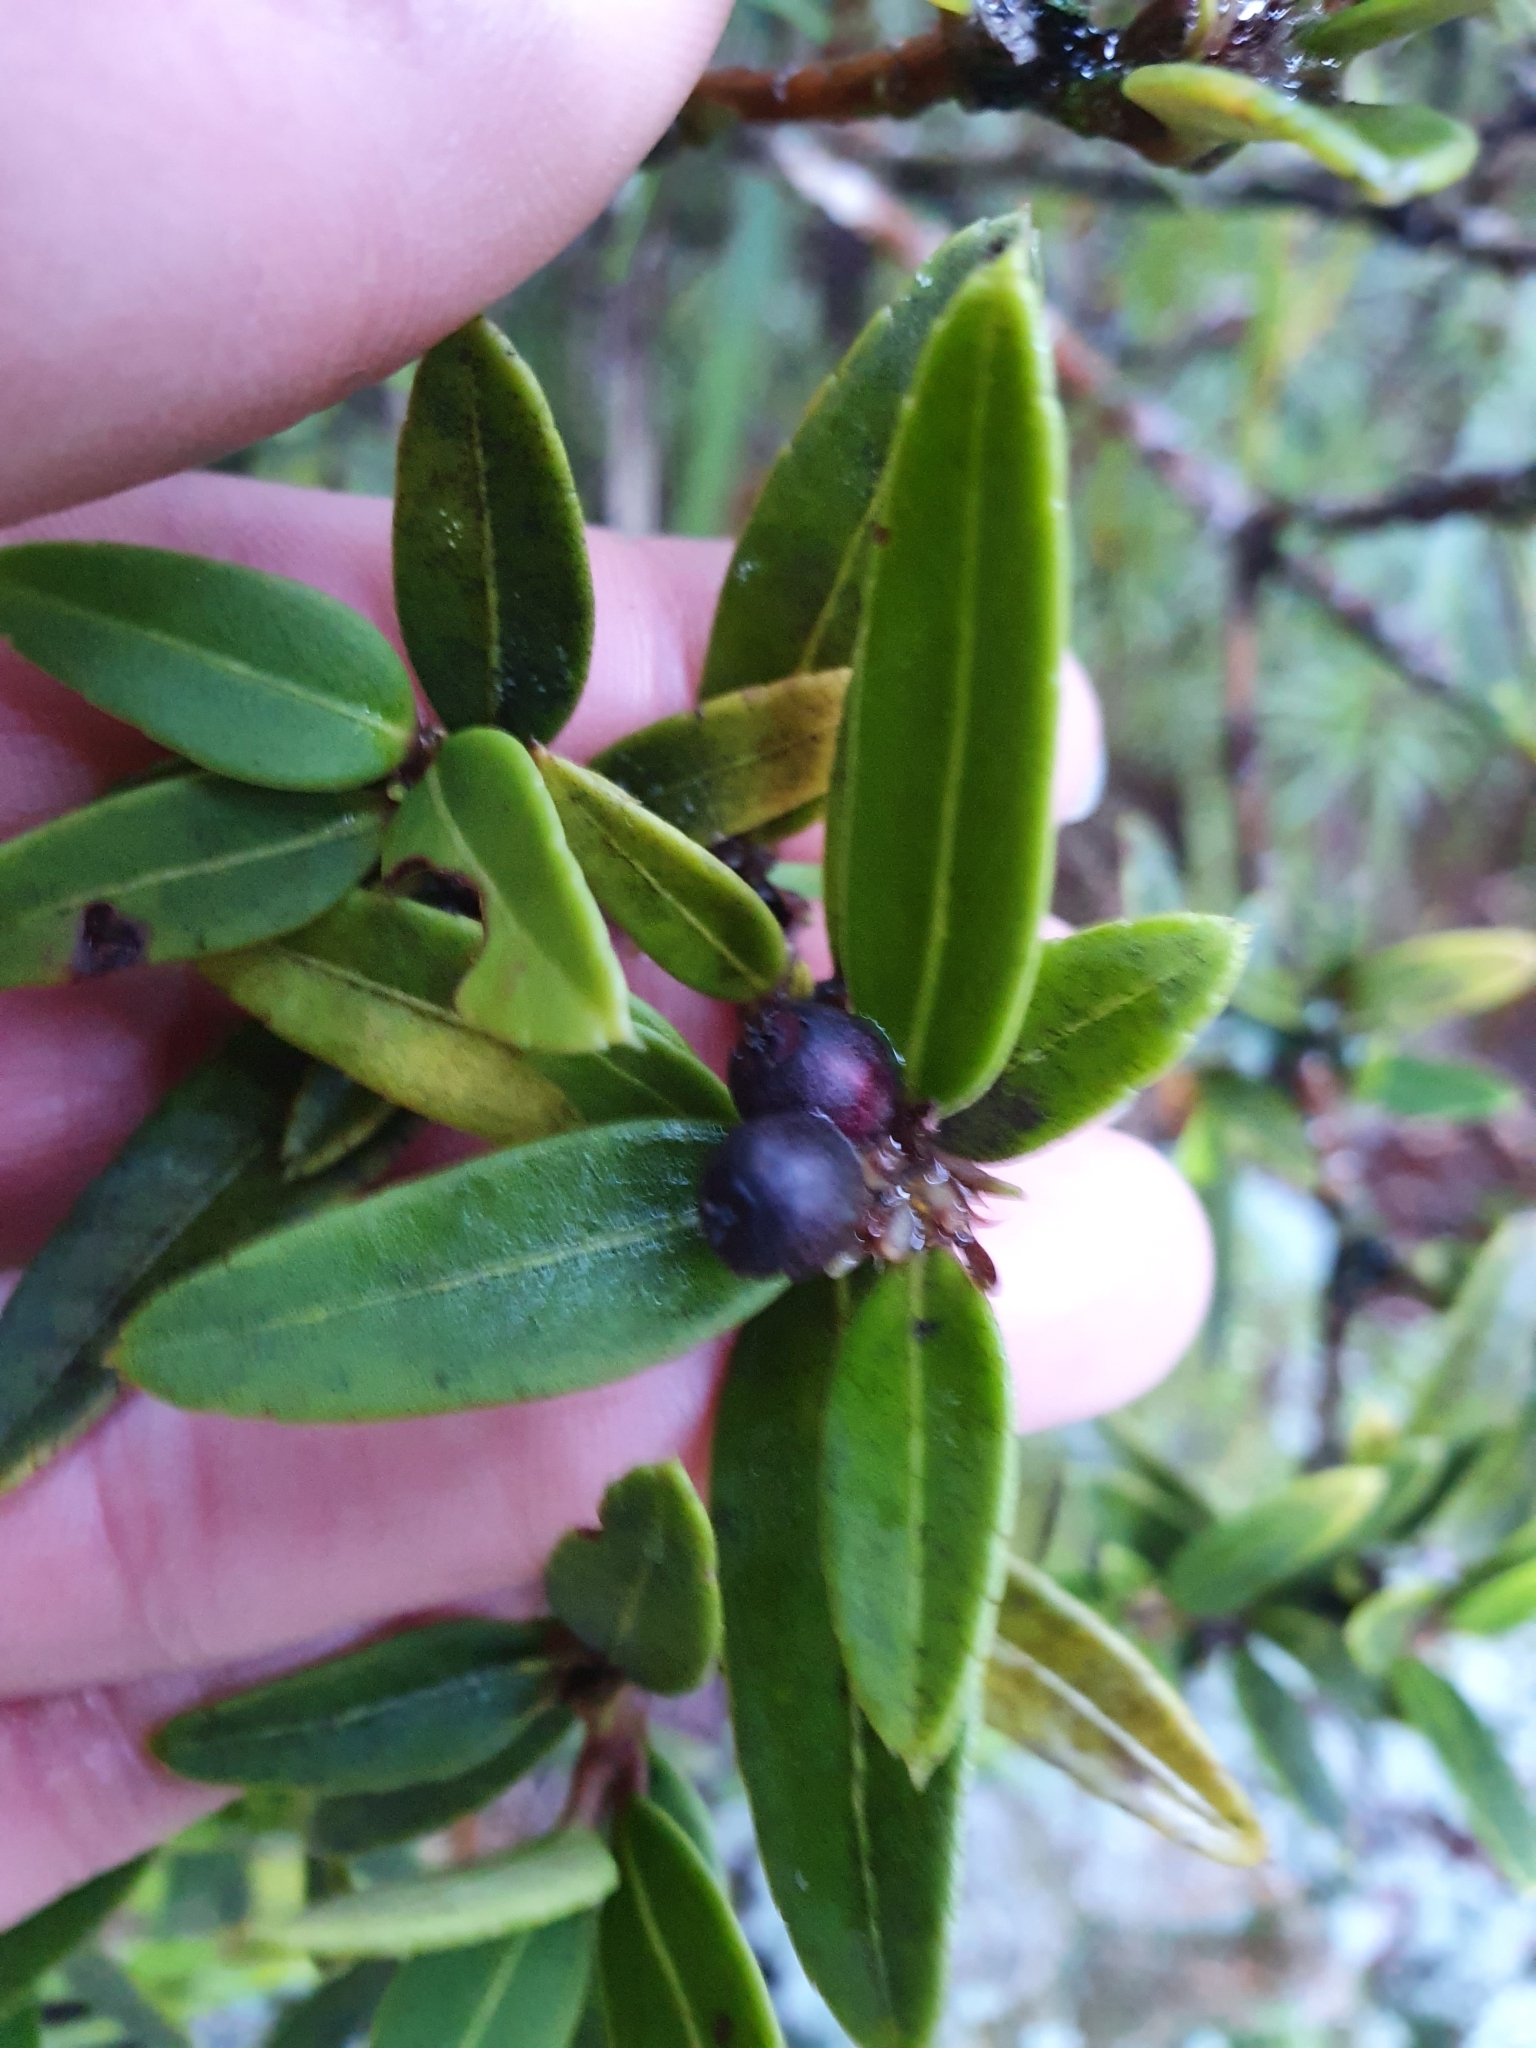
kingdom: Plantae
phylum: Tracheophyta
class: Magnoliopsida
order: Apiales
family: Araliaceae
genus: Pseudopanax
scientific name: Pseudopanax linearis
